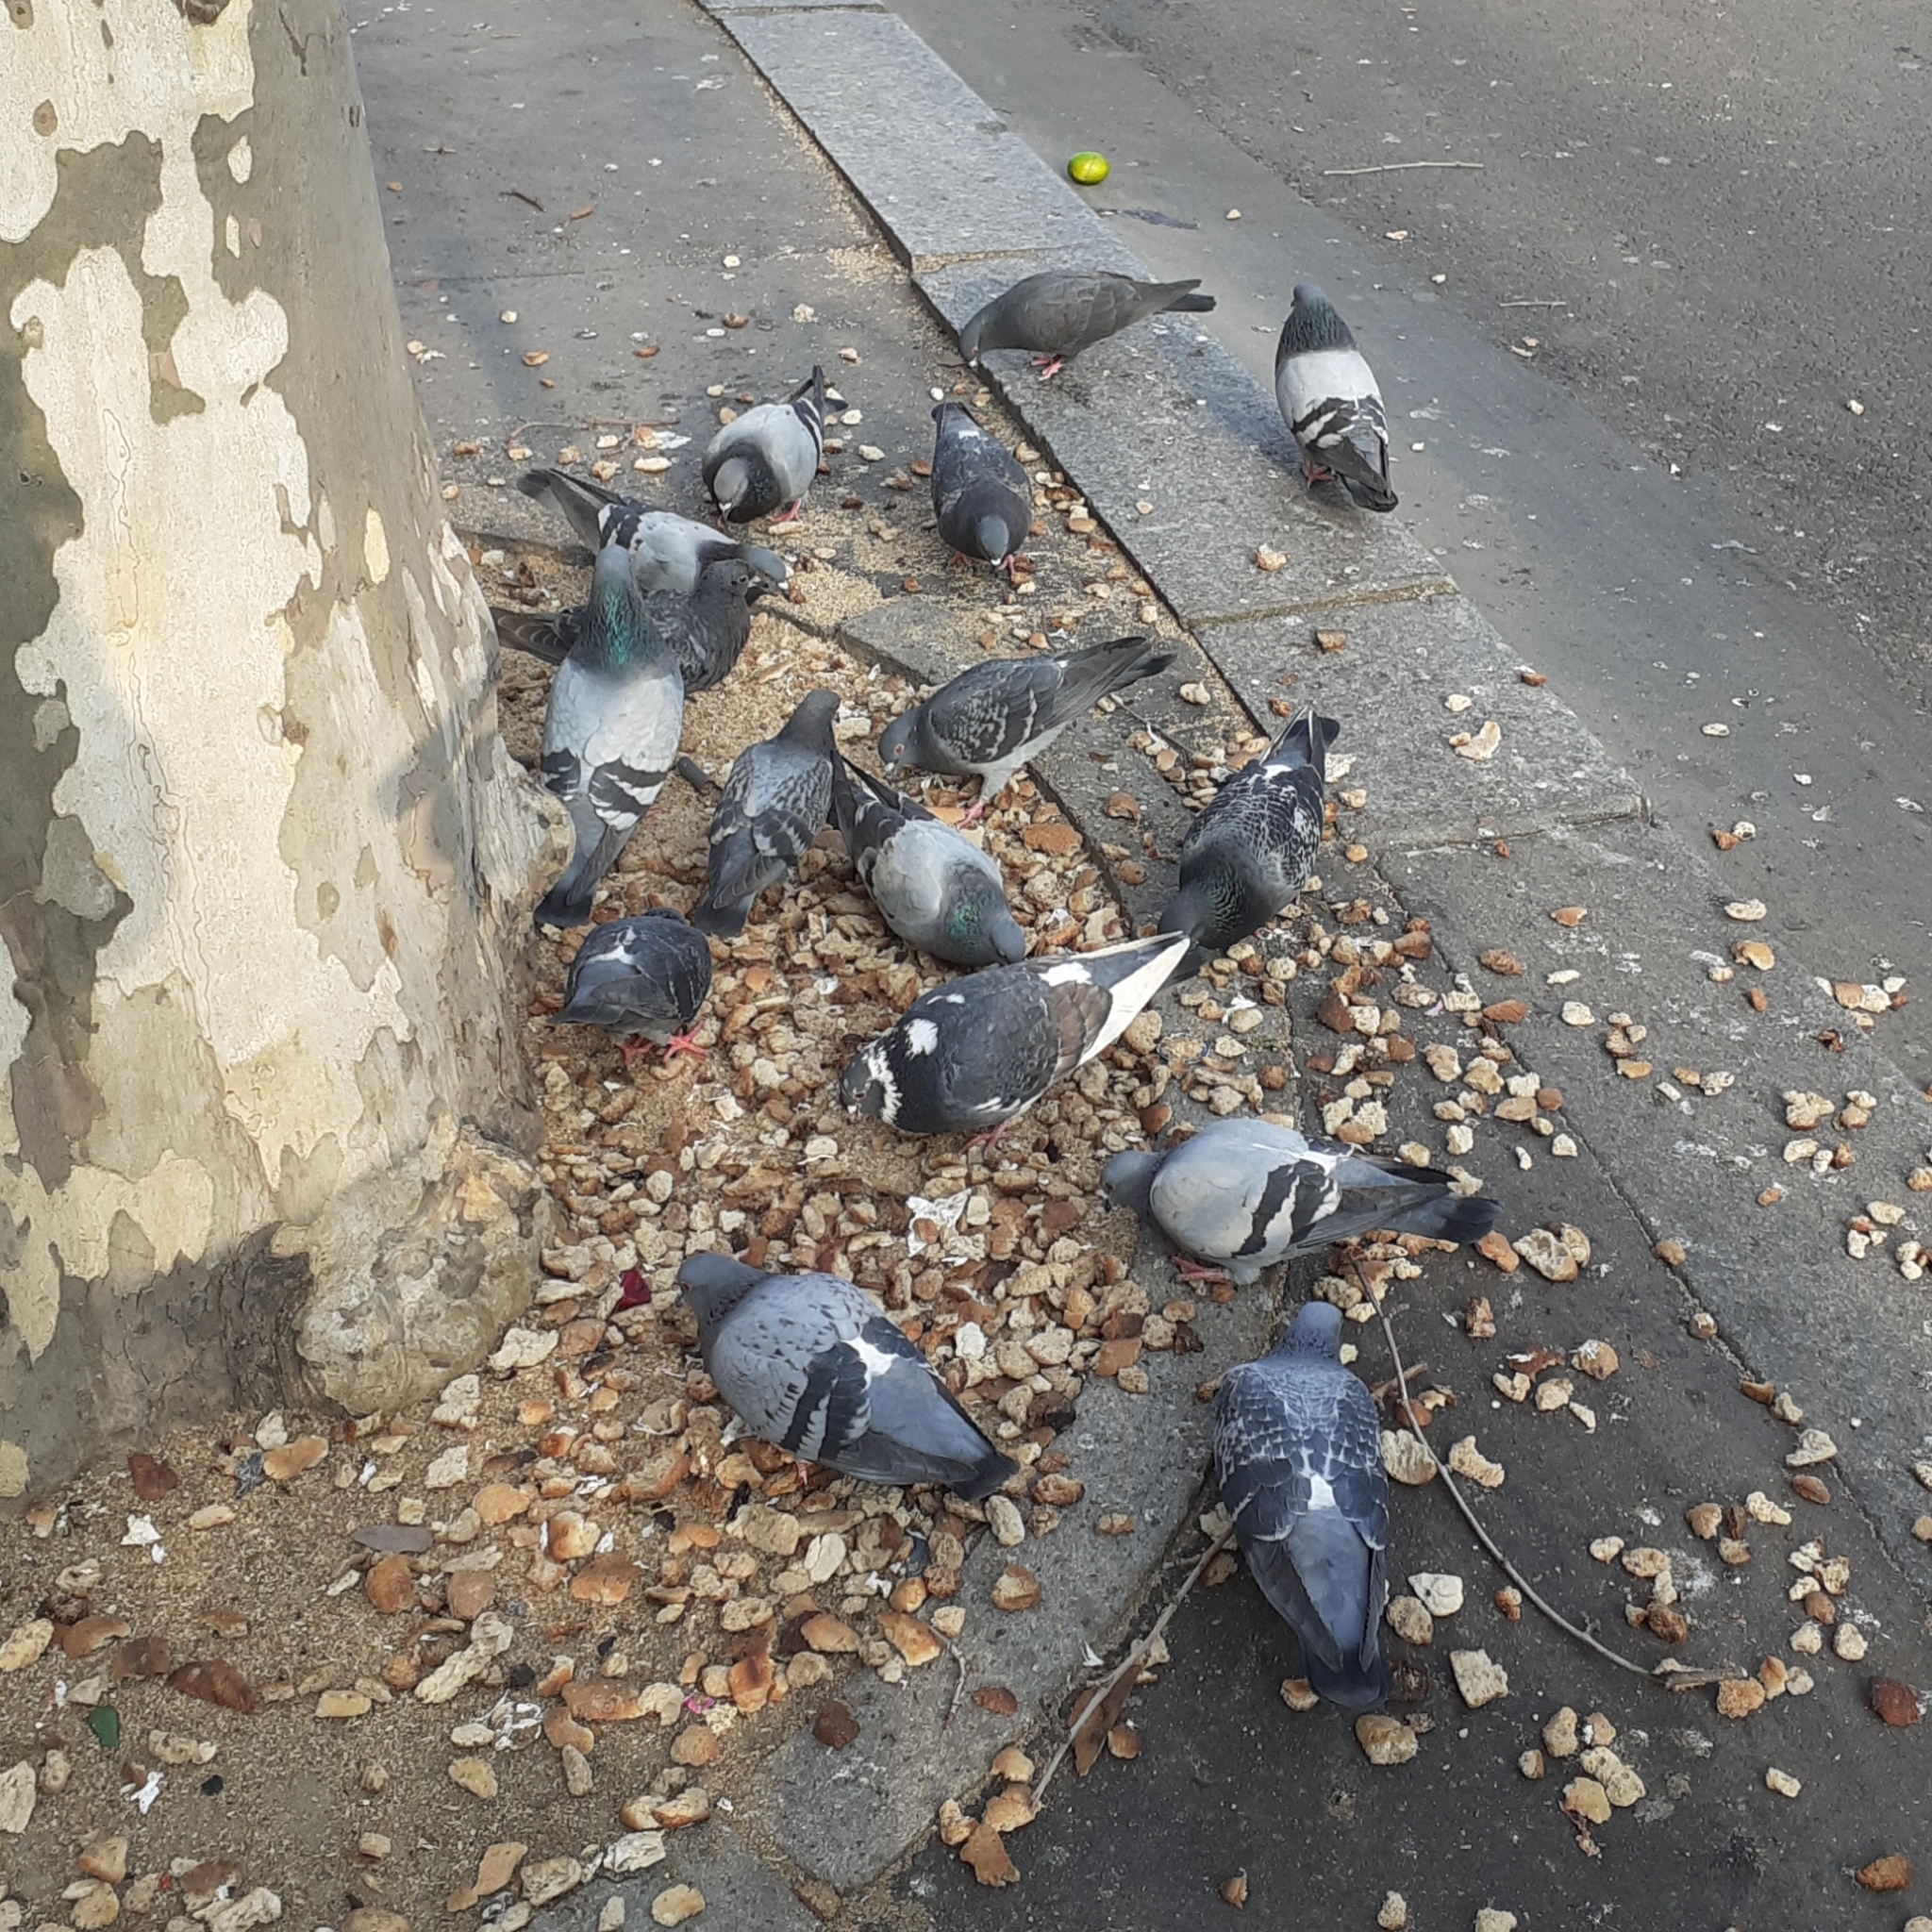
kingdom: Animalia
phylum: Chordata
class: Aves
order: Columbiformes
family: Columbidae
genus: Columba
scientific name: Columba livia
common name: Rock pigeon
